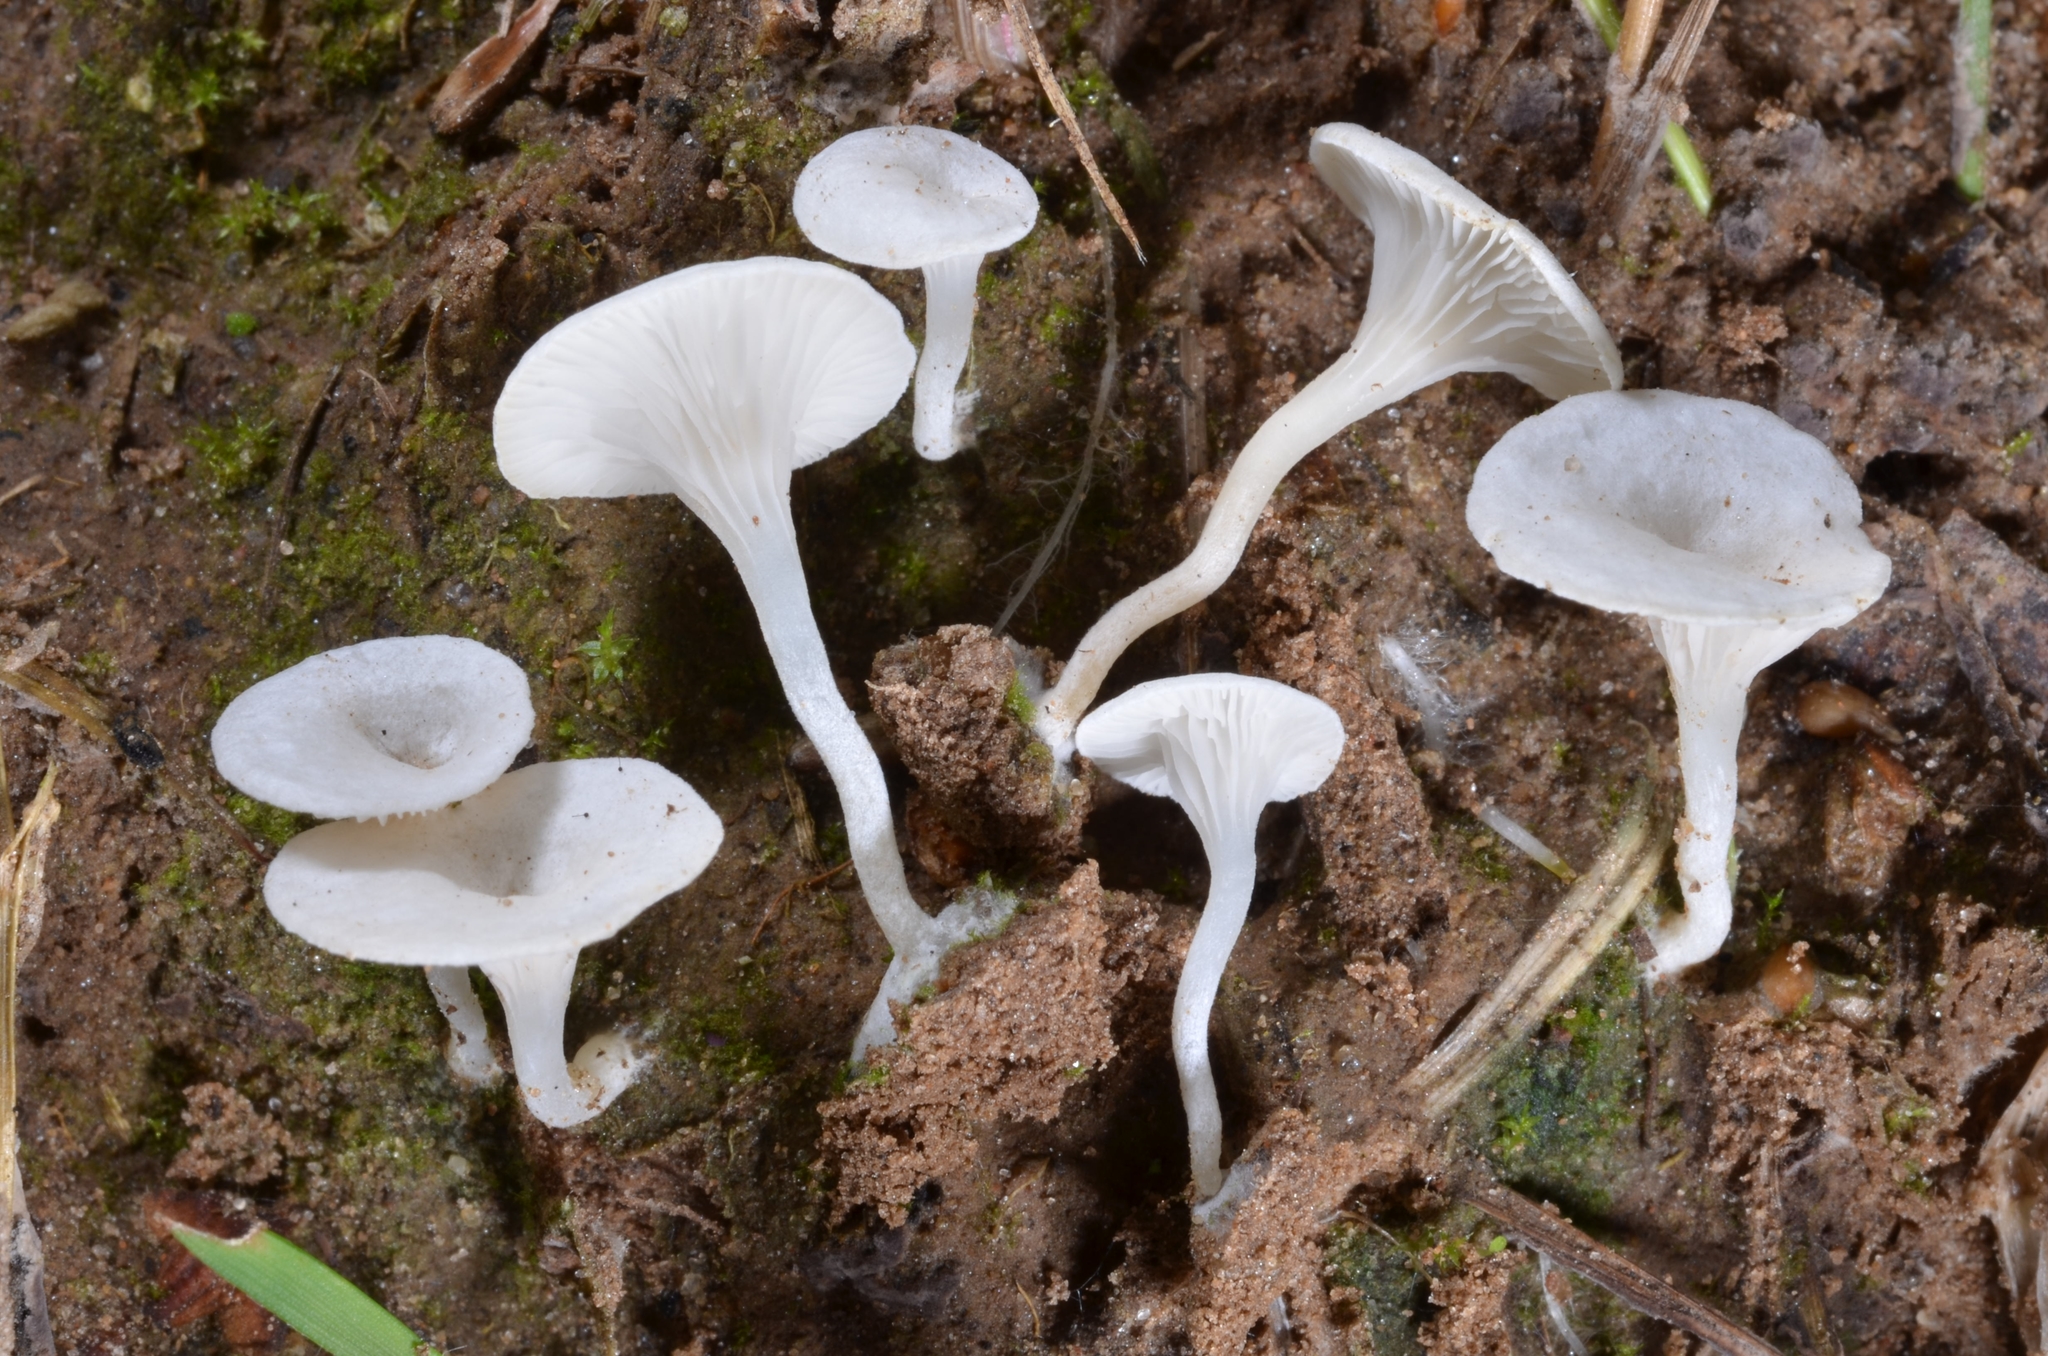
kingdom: Fungi
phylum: Basidiomycota
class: Agaricomycetes
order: Agaricales
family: Entolomataceae
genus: Clitopilus
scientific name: Clitopilus scyphoides
